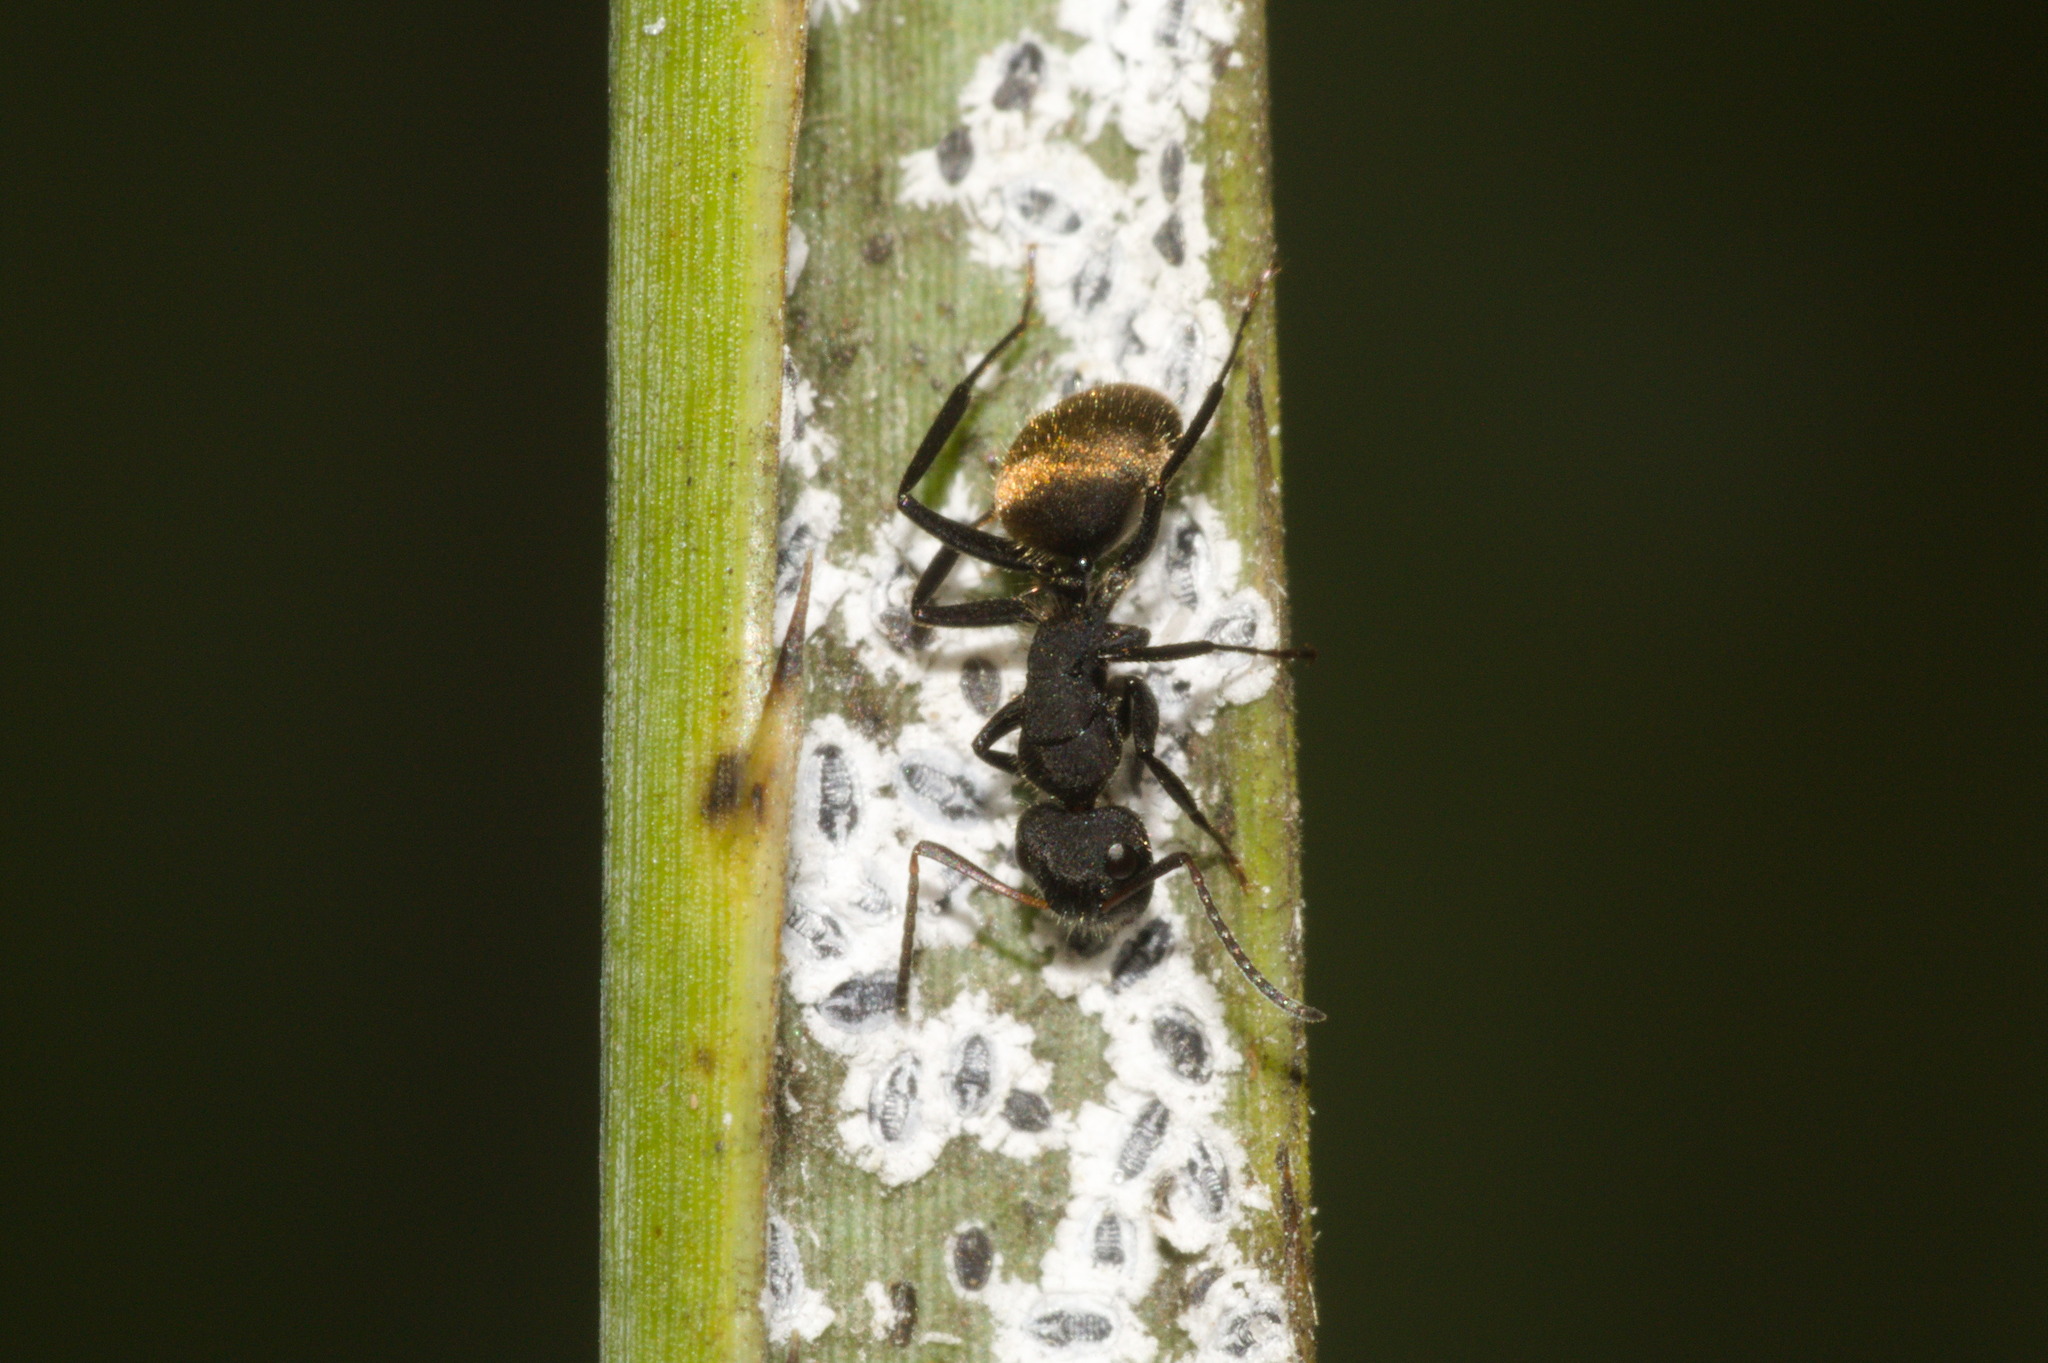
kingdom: Animalia
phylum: Arthropoda
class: Insecta
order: Hymenoptera
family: Formicidae
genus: Camponotus
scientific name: Camponotus mus
